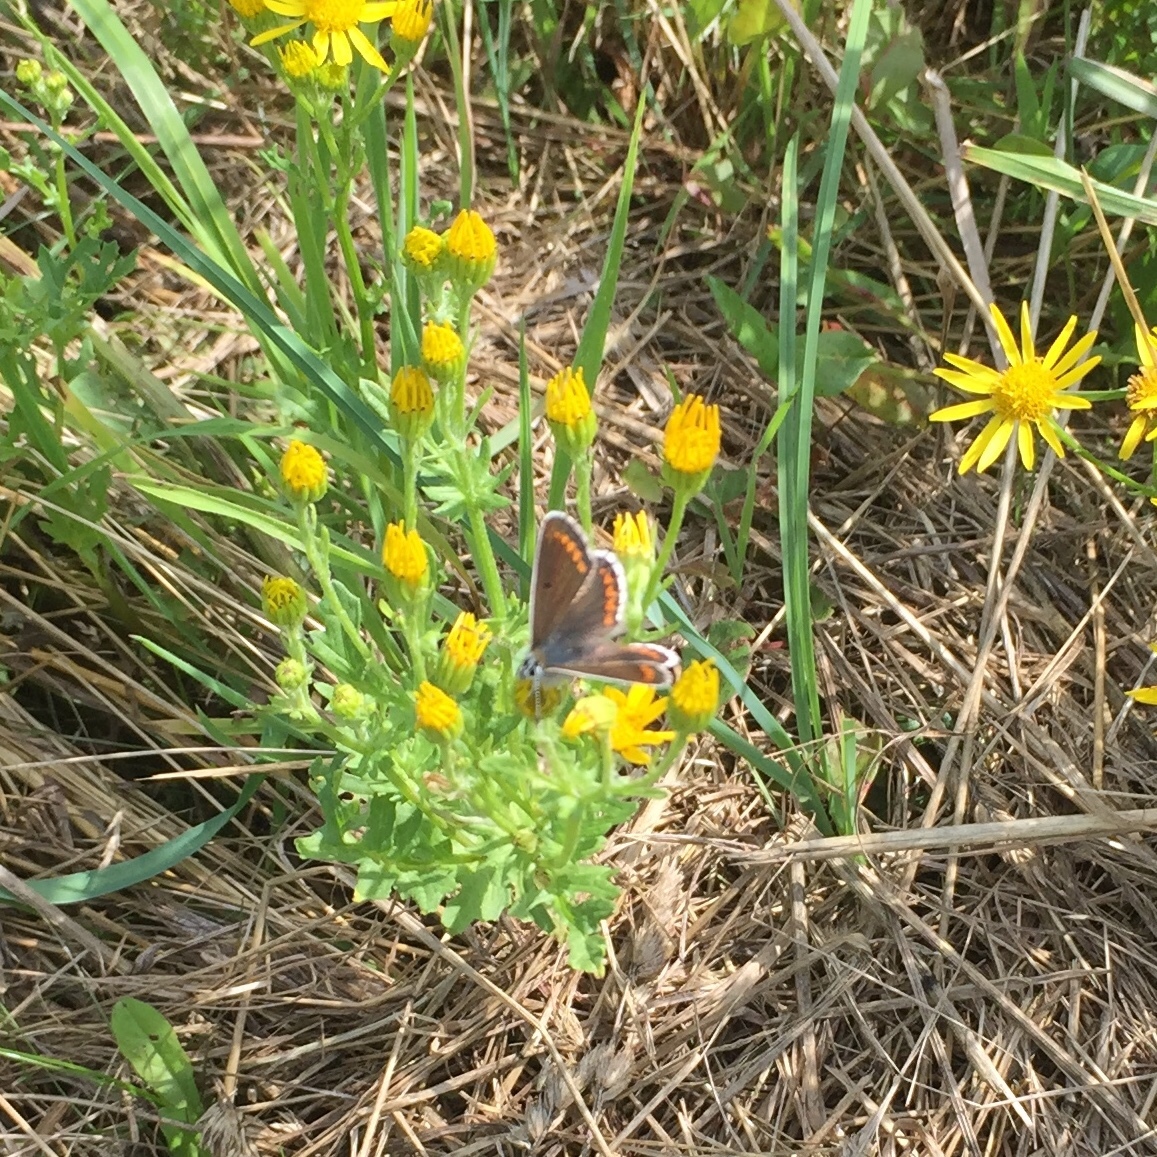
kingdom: Animalia
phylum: Arthropoda
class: Insecta
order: Lepidoptera
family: Lycaenidae
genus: Aricia
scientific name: Aricia agestis
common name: Brown argus
